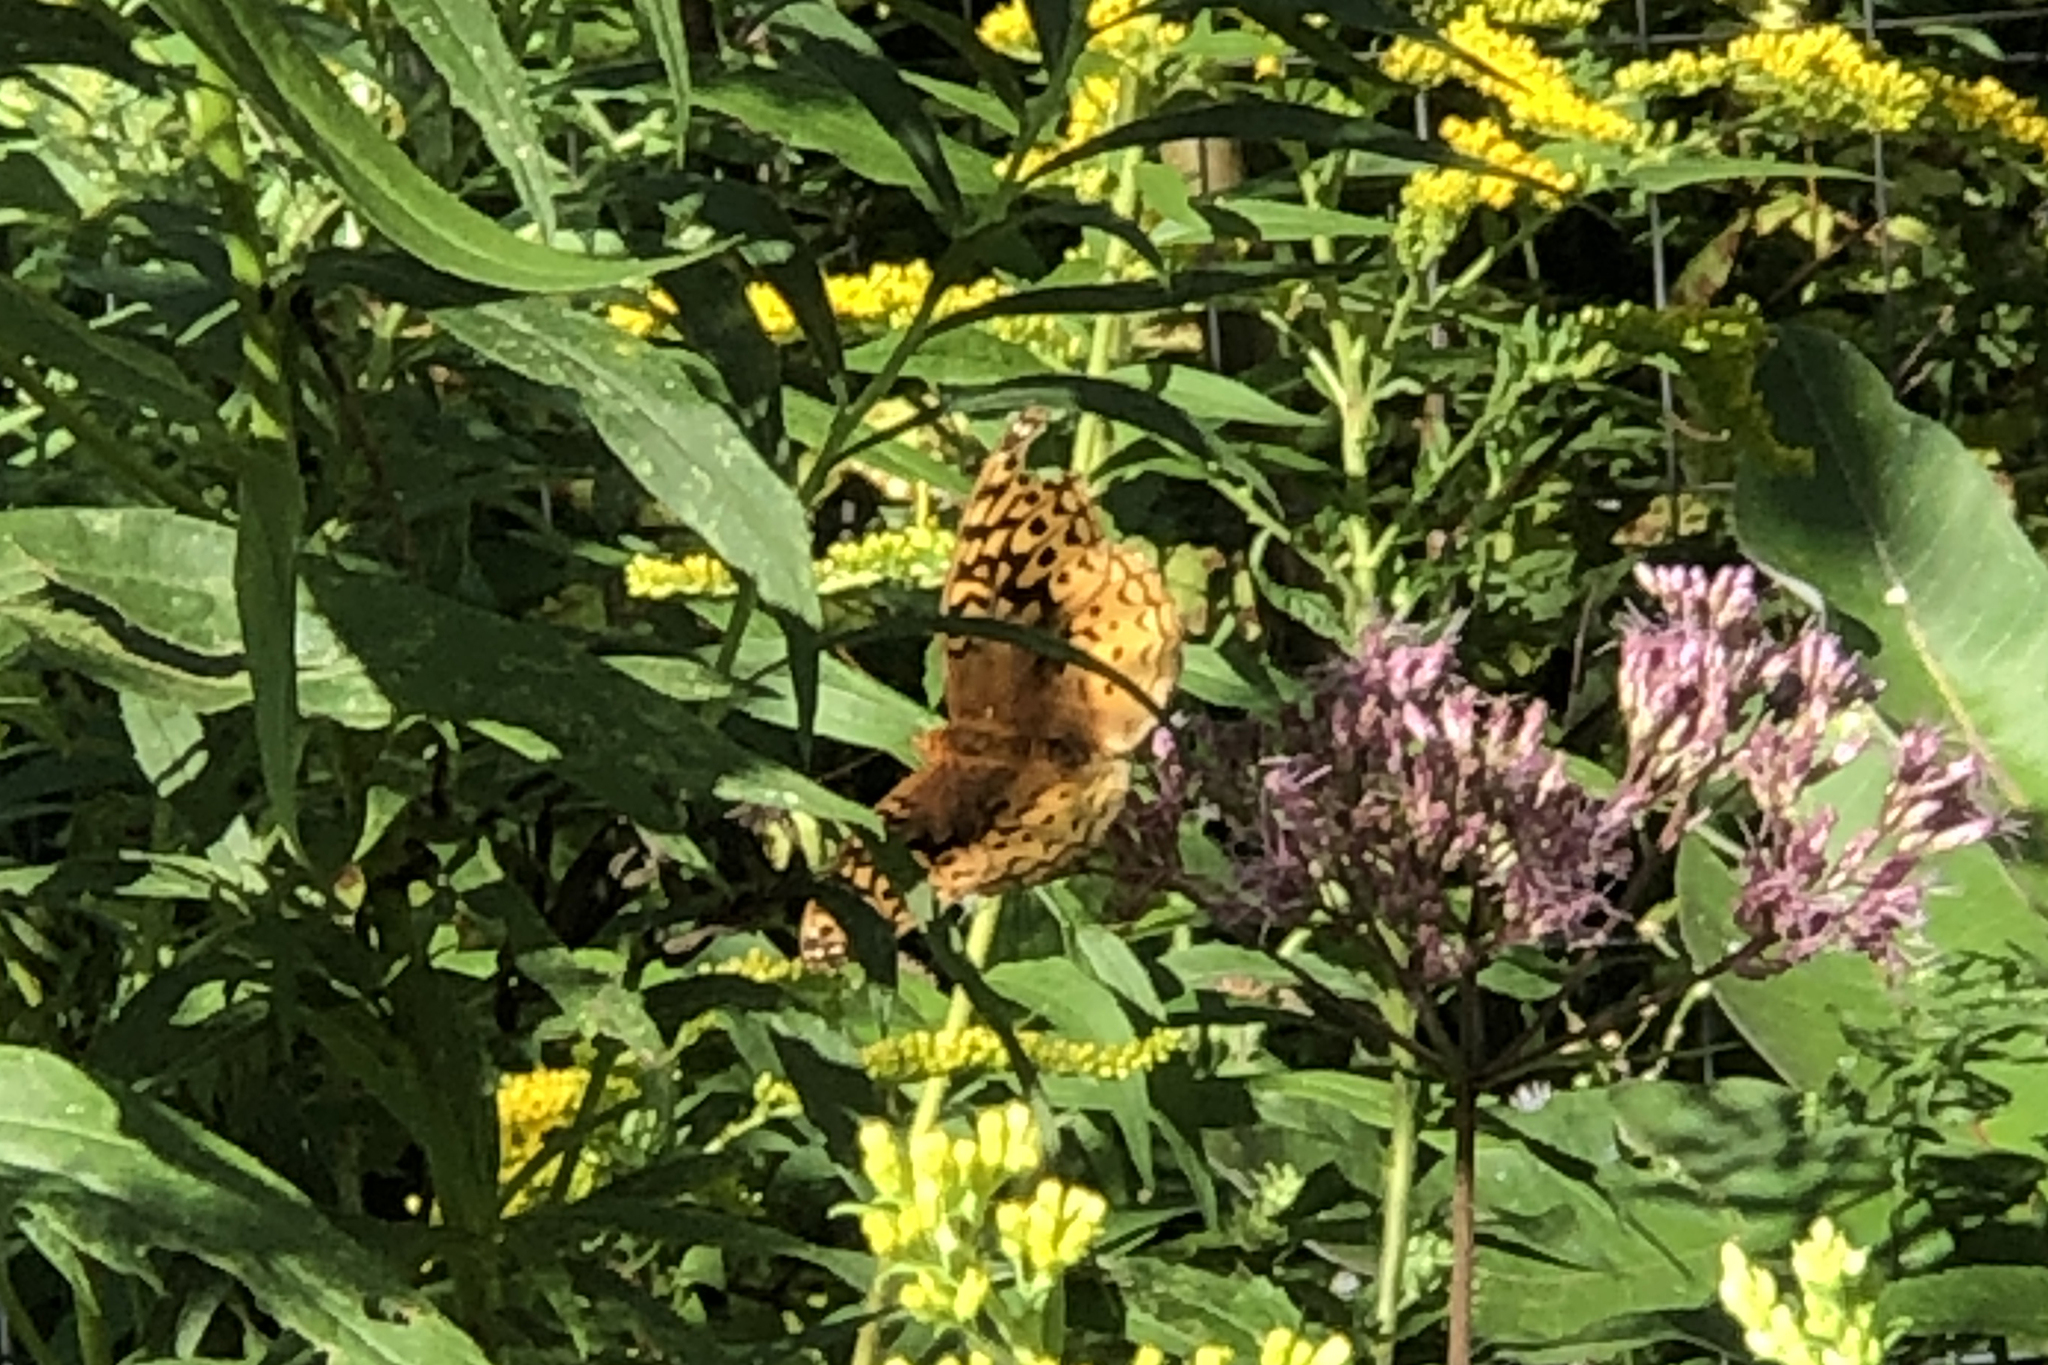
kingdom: Animalia
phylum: Arthropoda
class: Insecta
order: Lepidoptera
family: Nymphalidae
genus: Speyeria
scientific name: Speyeria cybele
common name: Great spangled fritillary
